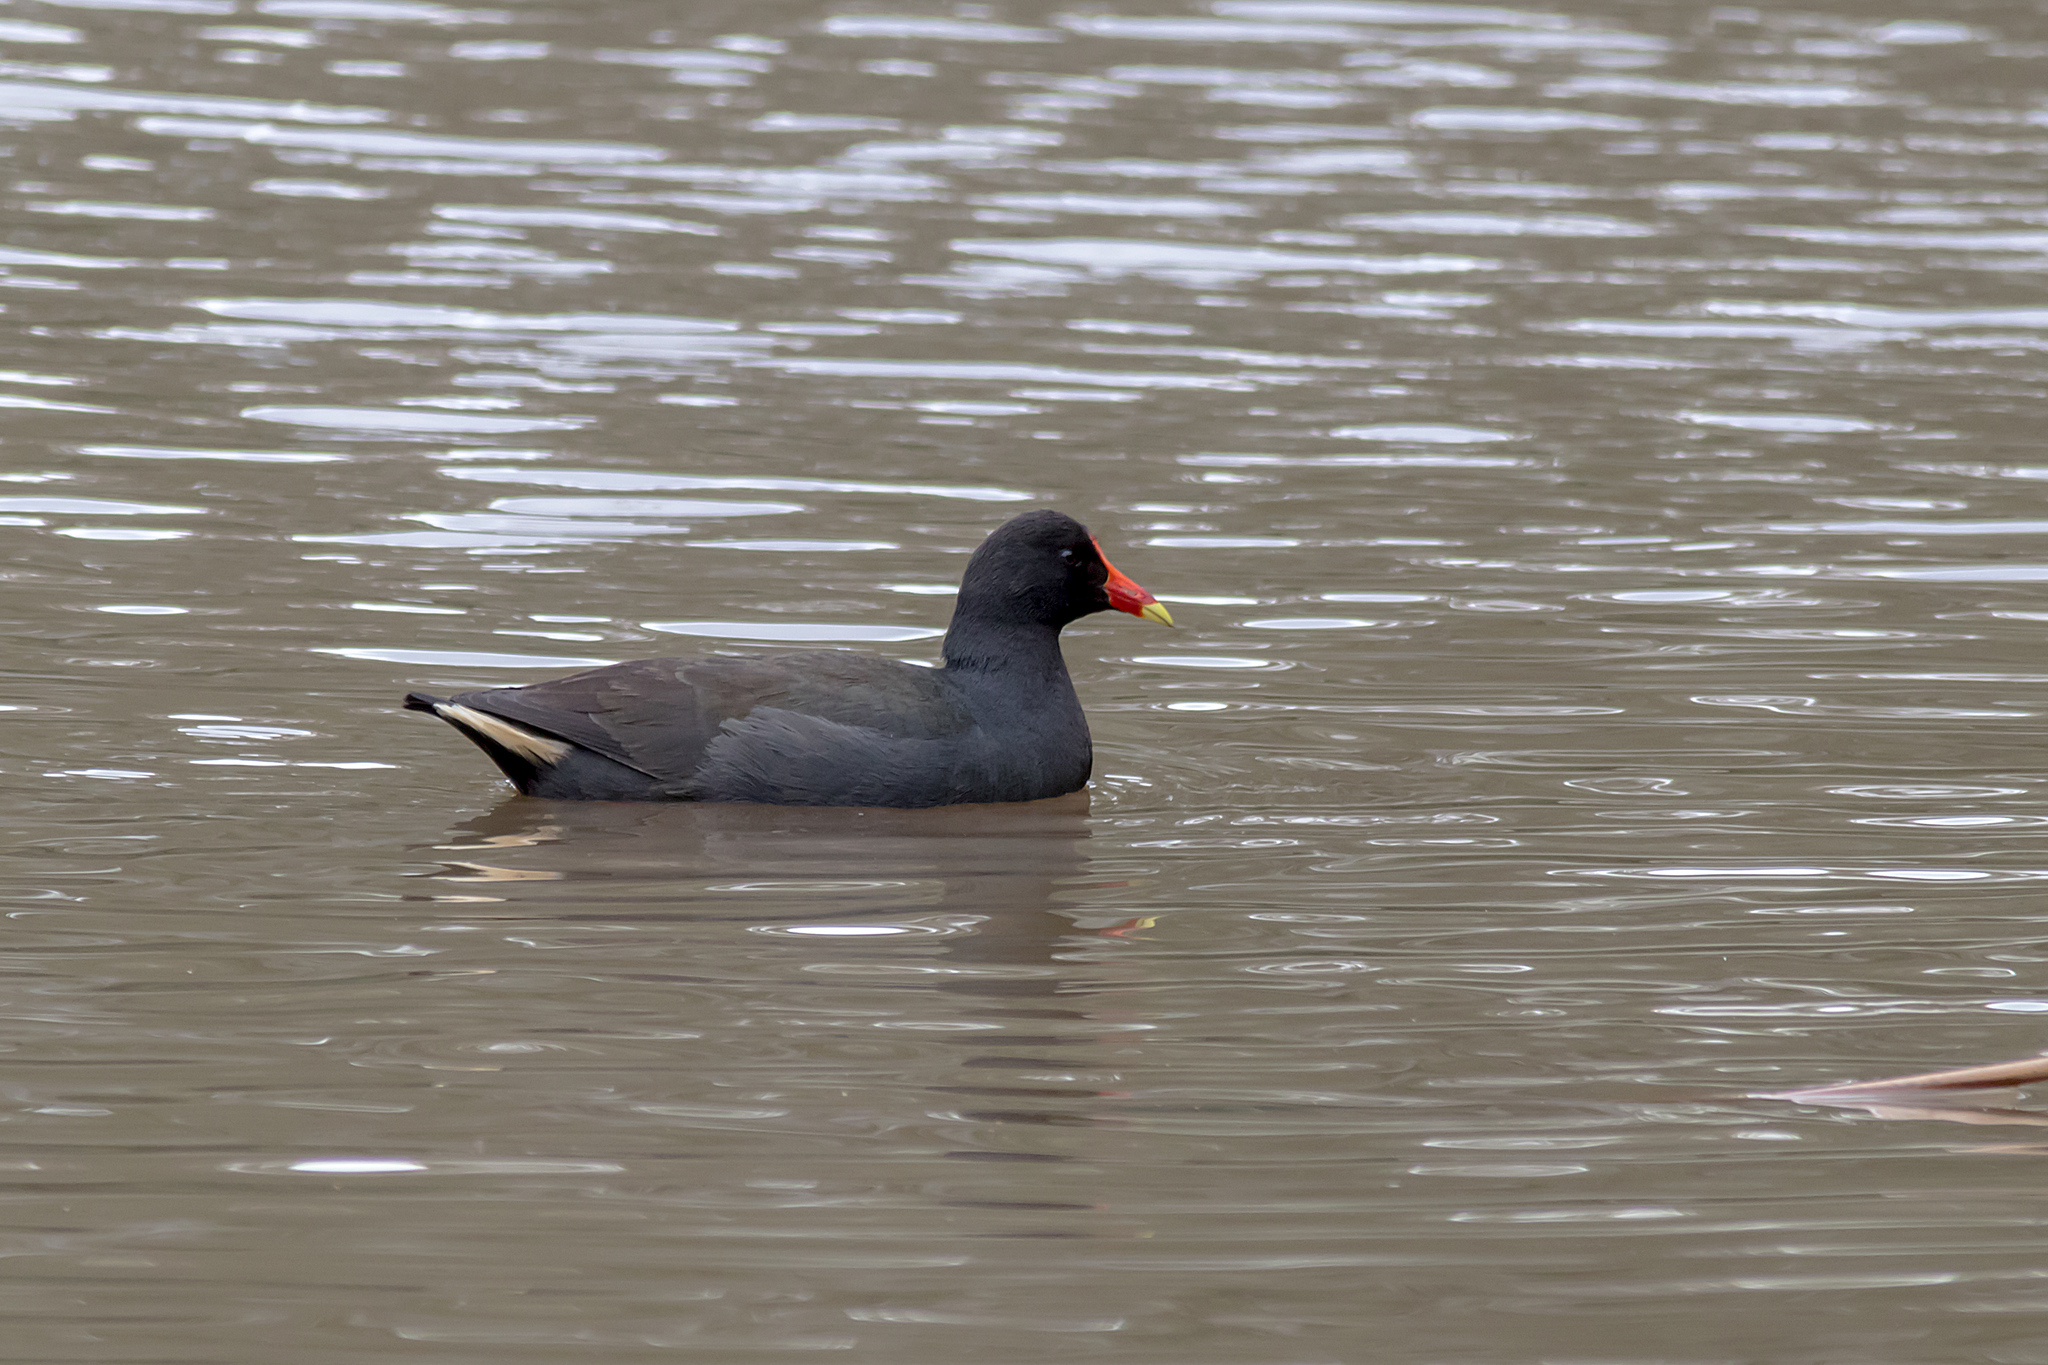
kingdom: Animalia
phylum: Chordata
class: Aves
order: Gruiformes
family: Rallidae
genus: Gallinula
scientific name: Gallinula tenebrosa
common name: Dusky moorhen
